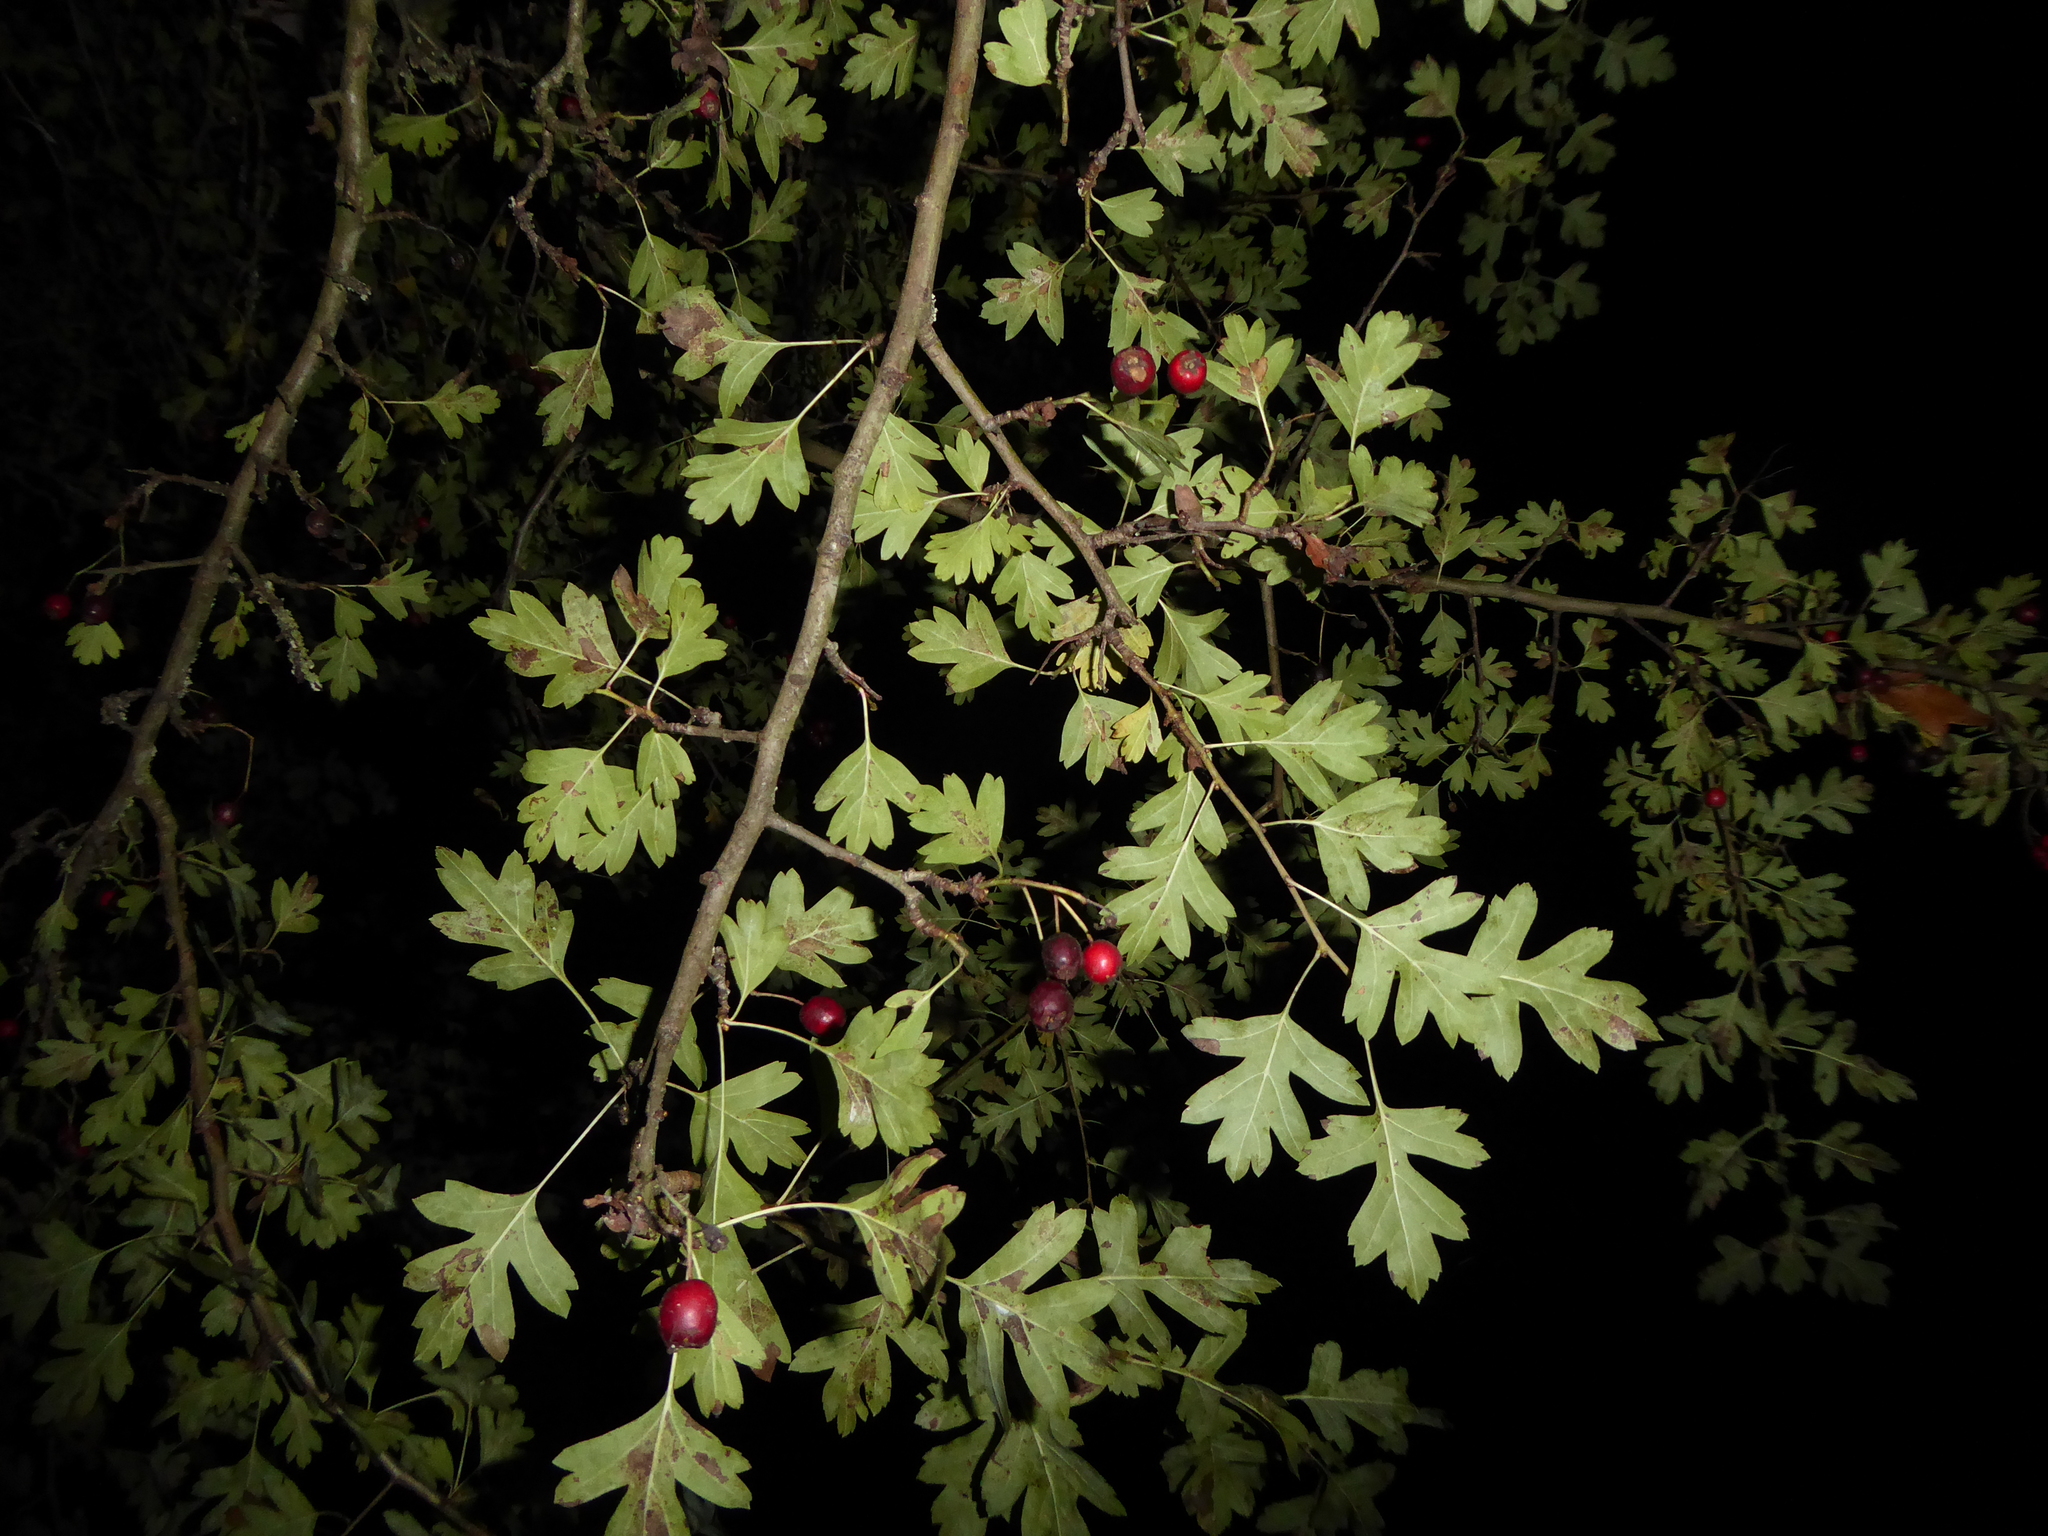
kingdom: Plantae
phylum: Tracheophyta
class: Magnoliopsida
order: Rosales
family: Rosaceae
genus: Crataegus
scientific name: Crataegus monogyna
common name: Hawthorn
